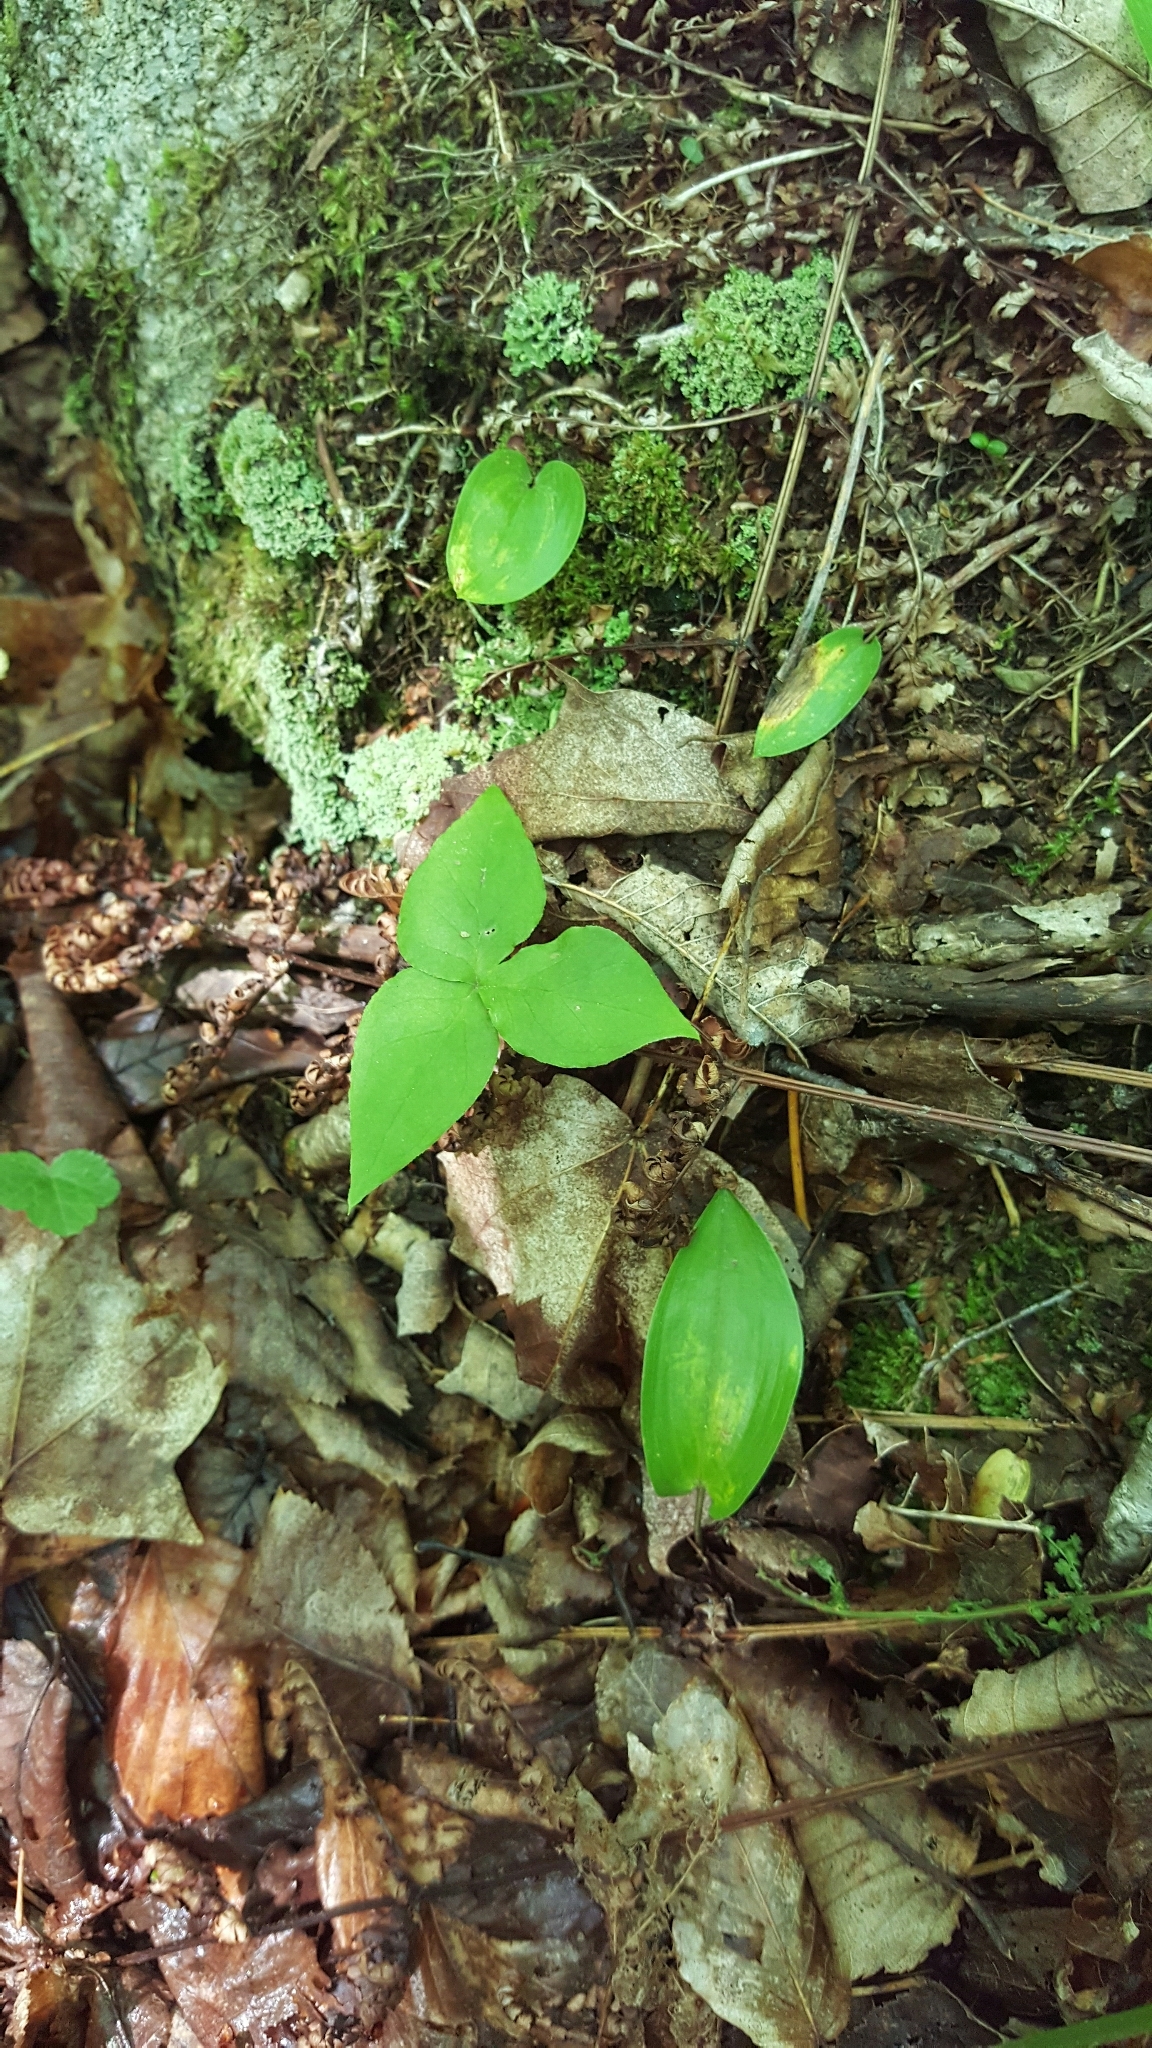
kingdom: Plantae
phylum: Tracheophyta
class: Liliopsida
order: Alismatales
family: Araceae
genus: Arisaema
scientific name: Arisaema triphyllum
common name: Jack-in-the-pulpit
